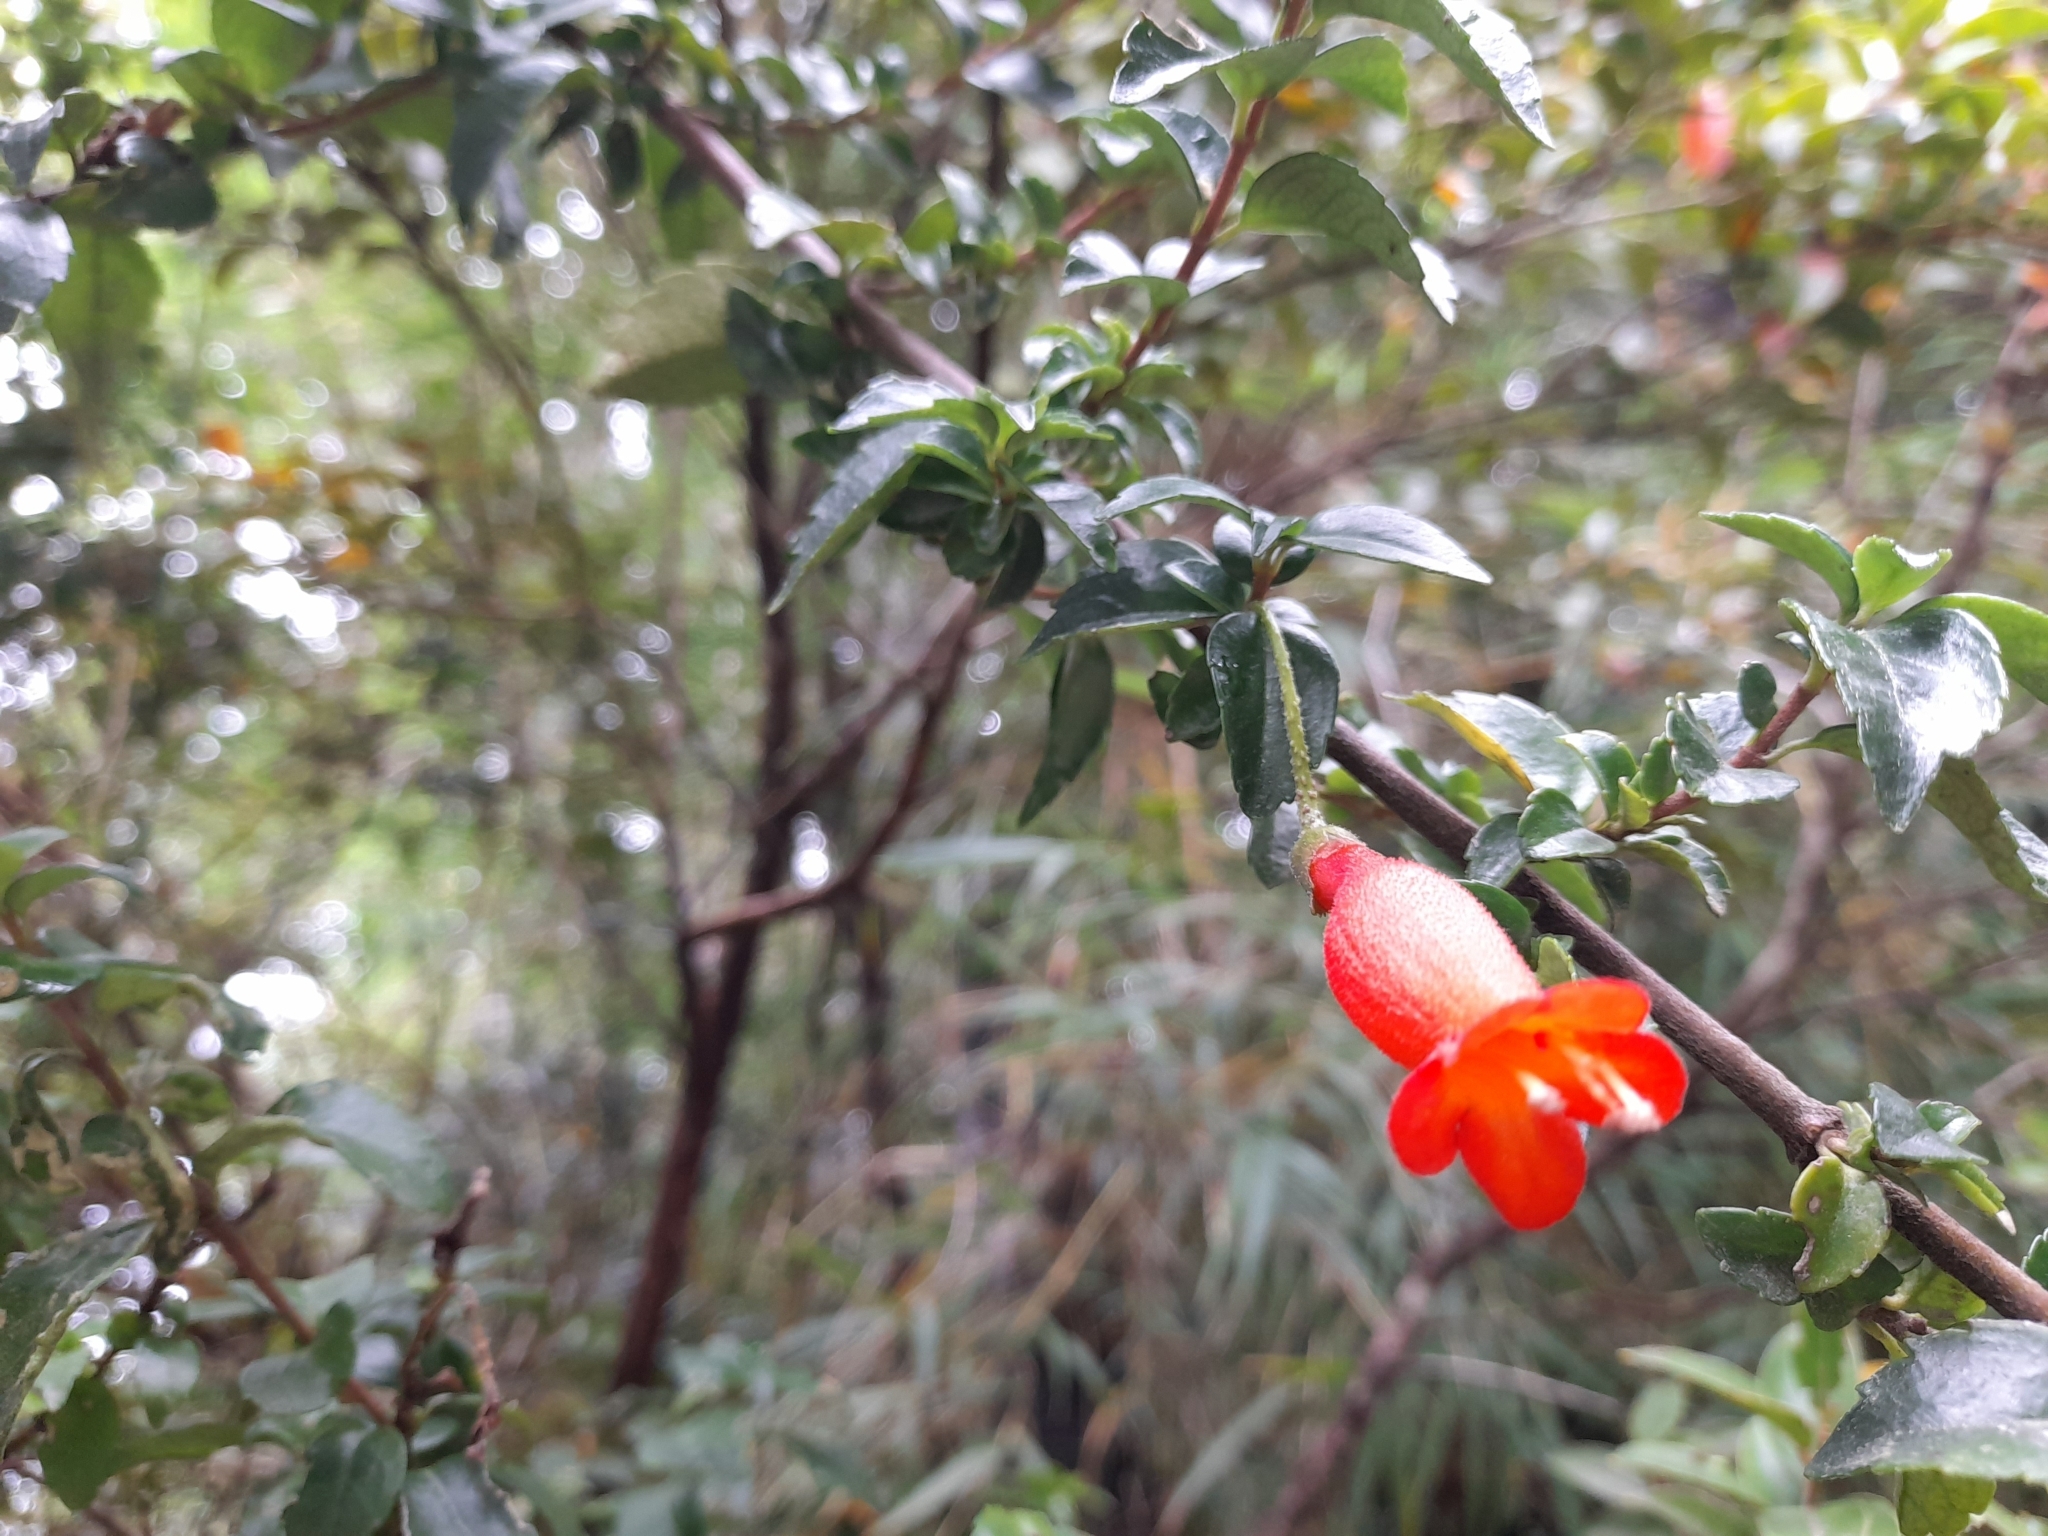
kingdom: Plantae
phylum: Tracheophyta
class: Magnoliopsida
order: Lamiales
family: Gesneriaceae
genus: Mitraria
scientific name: Mitraria coccinea
